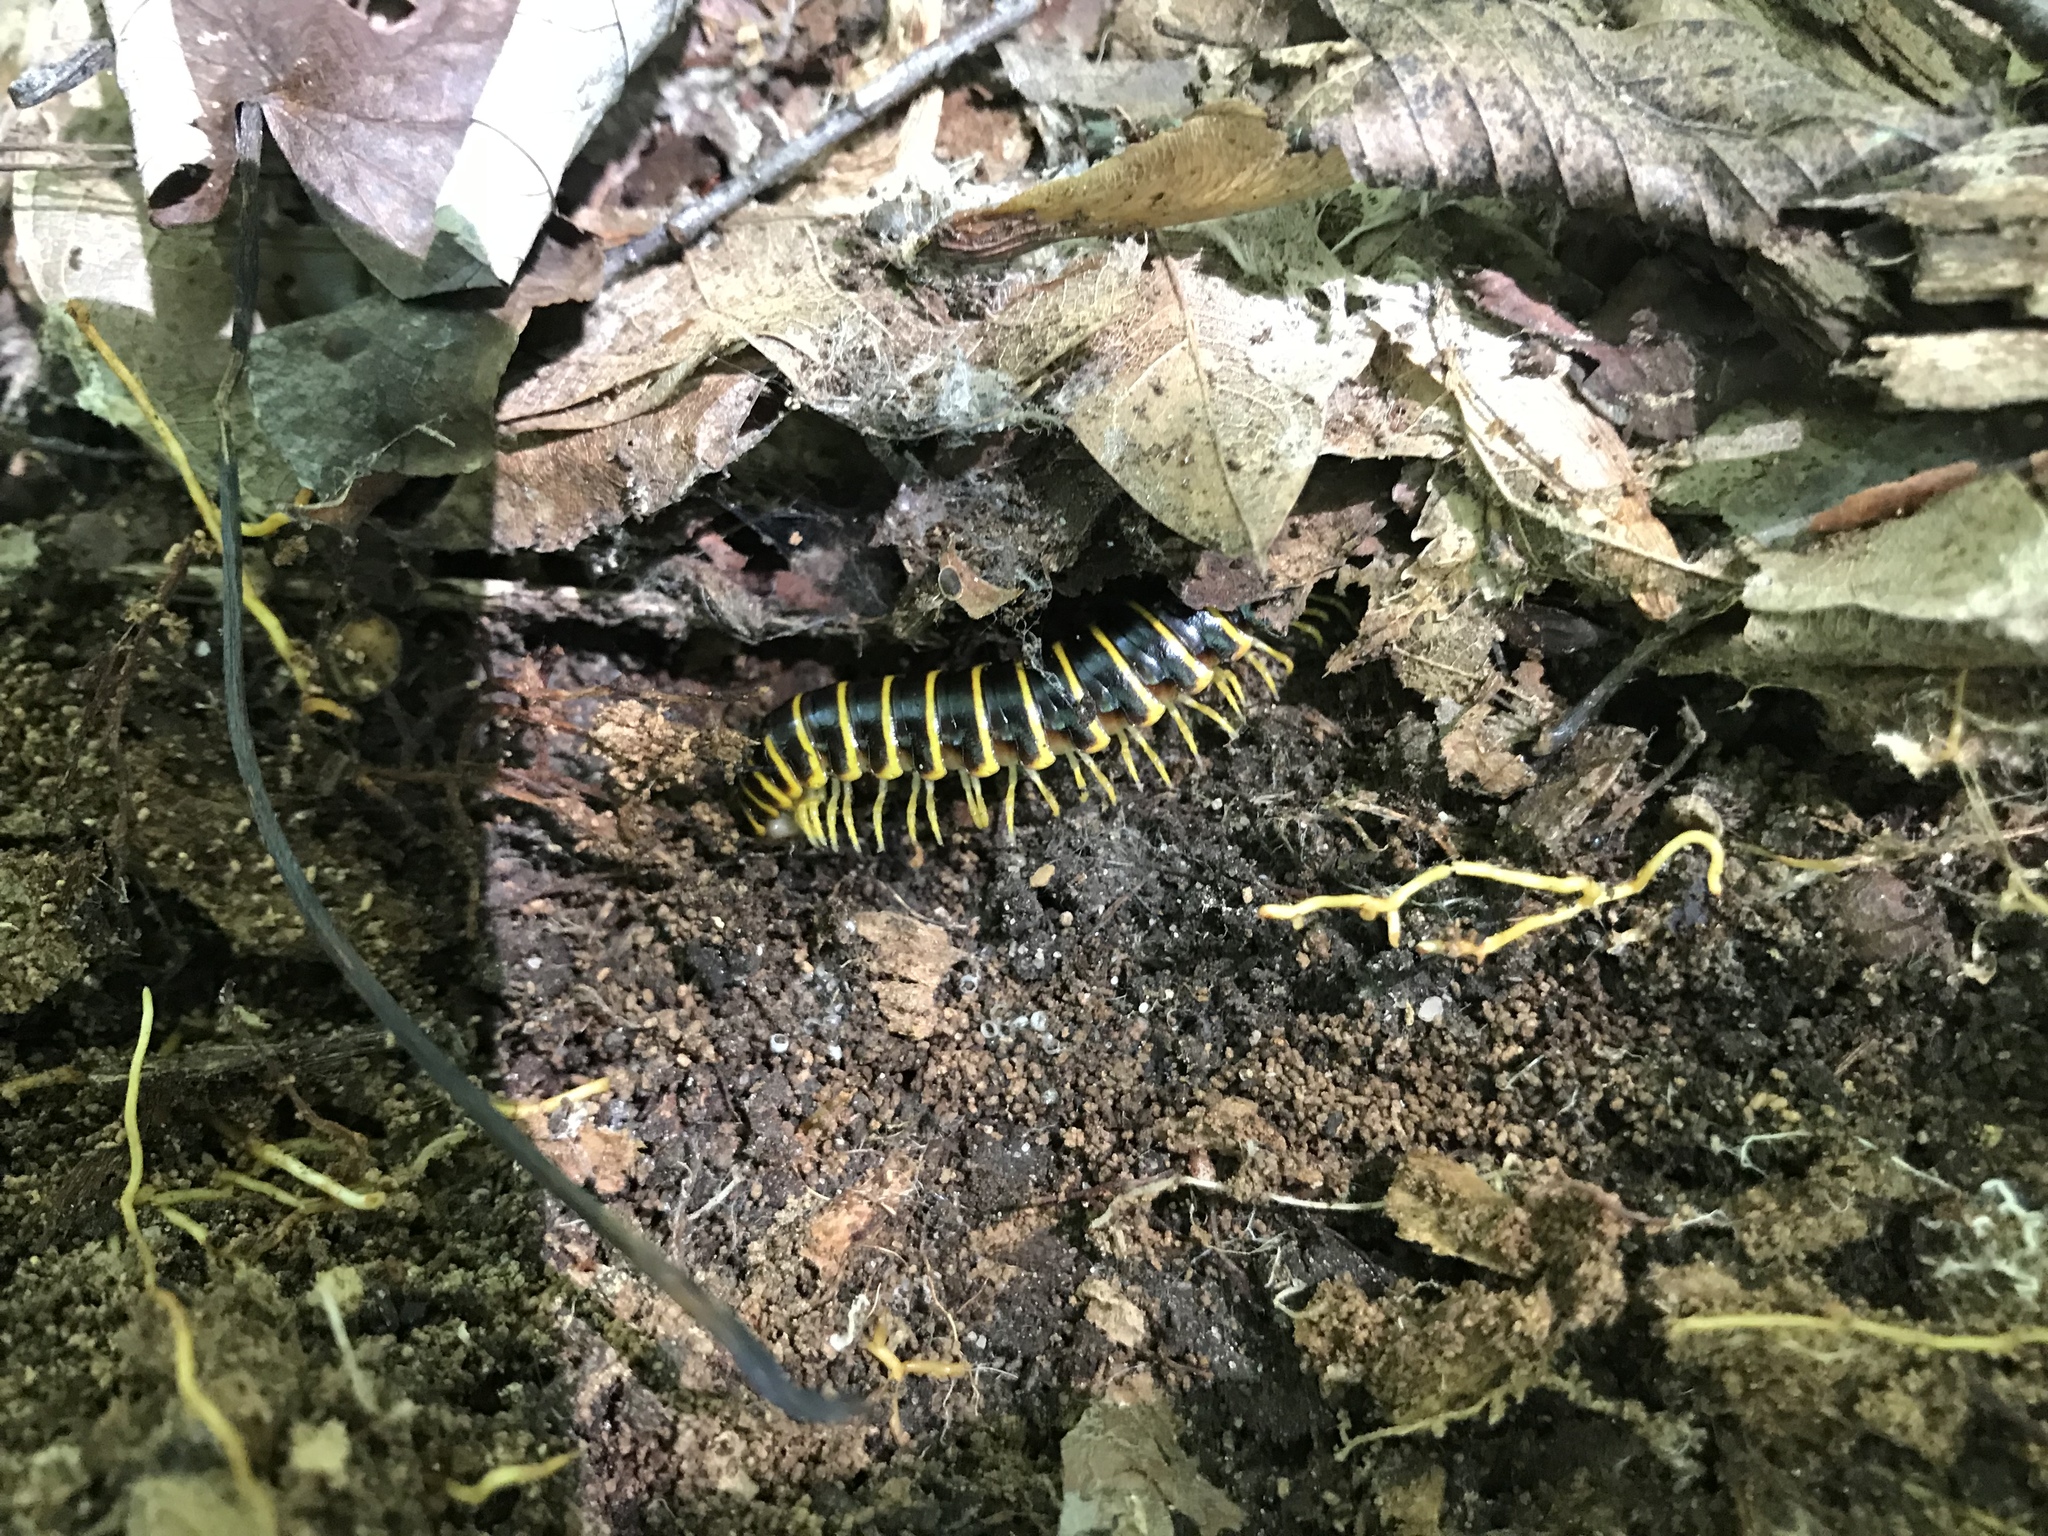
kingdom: Animalia
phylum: Arthropoda
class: Diplopoda
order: Polydesmida
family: Xystodesmidae
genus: Apheloria
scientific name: Apheloria virginiensis
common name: Black-and-gold flat millipede
